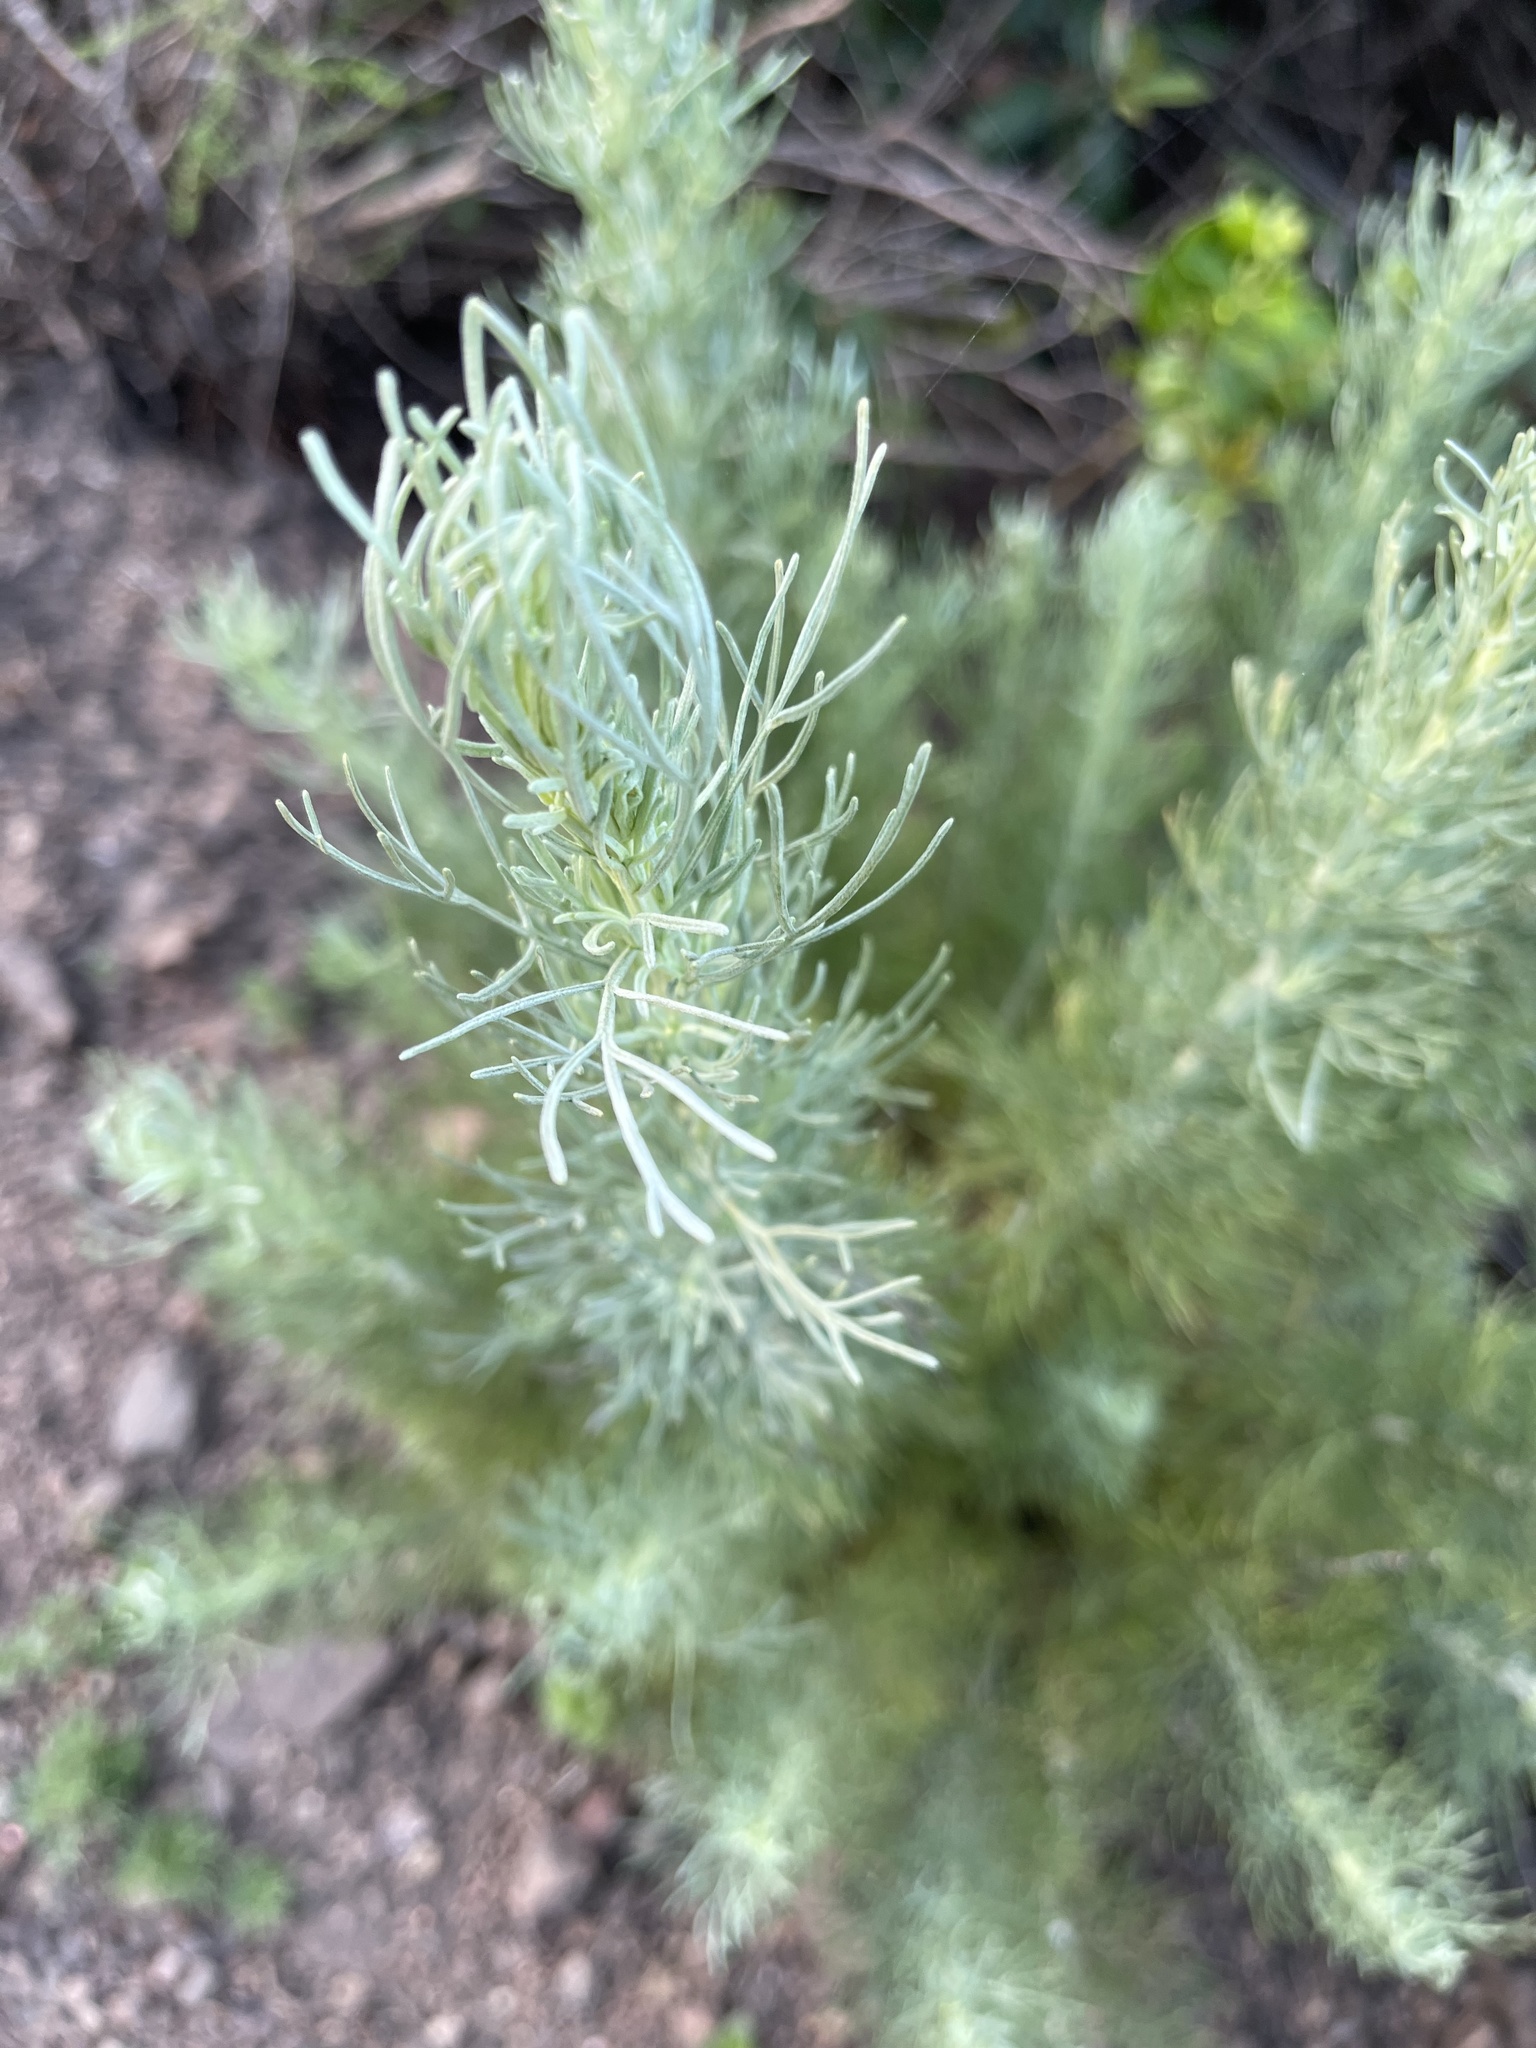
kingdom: Plantae
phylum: Tracheophyta
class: Magnoliopsida
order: Asterales
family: Asteraceae
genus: Artemisia
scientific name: Artemisia californica
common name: California sagebrush
